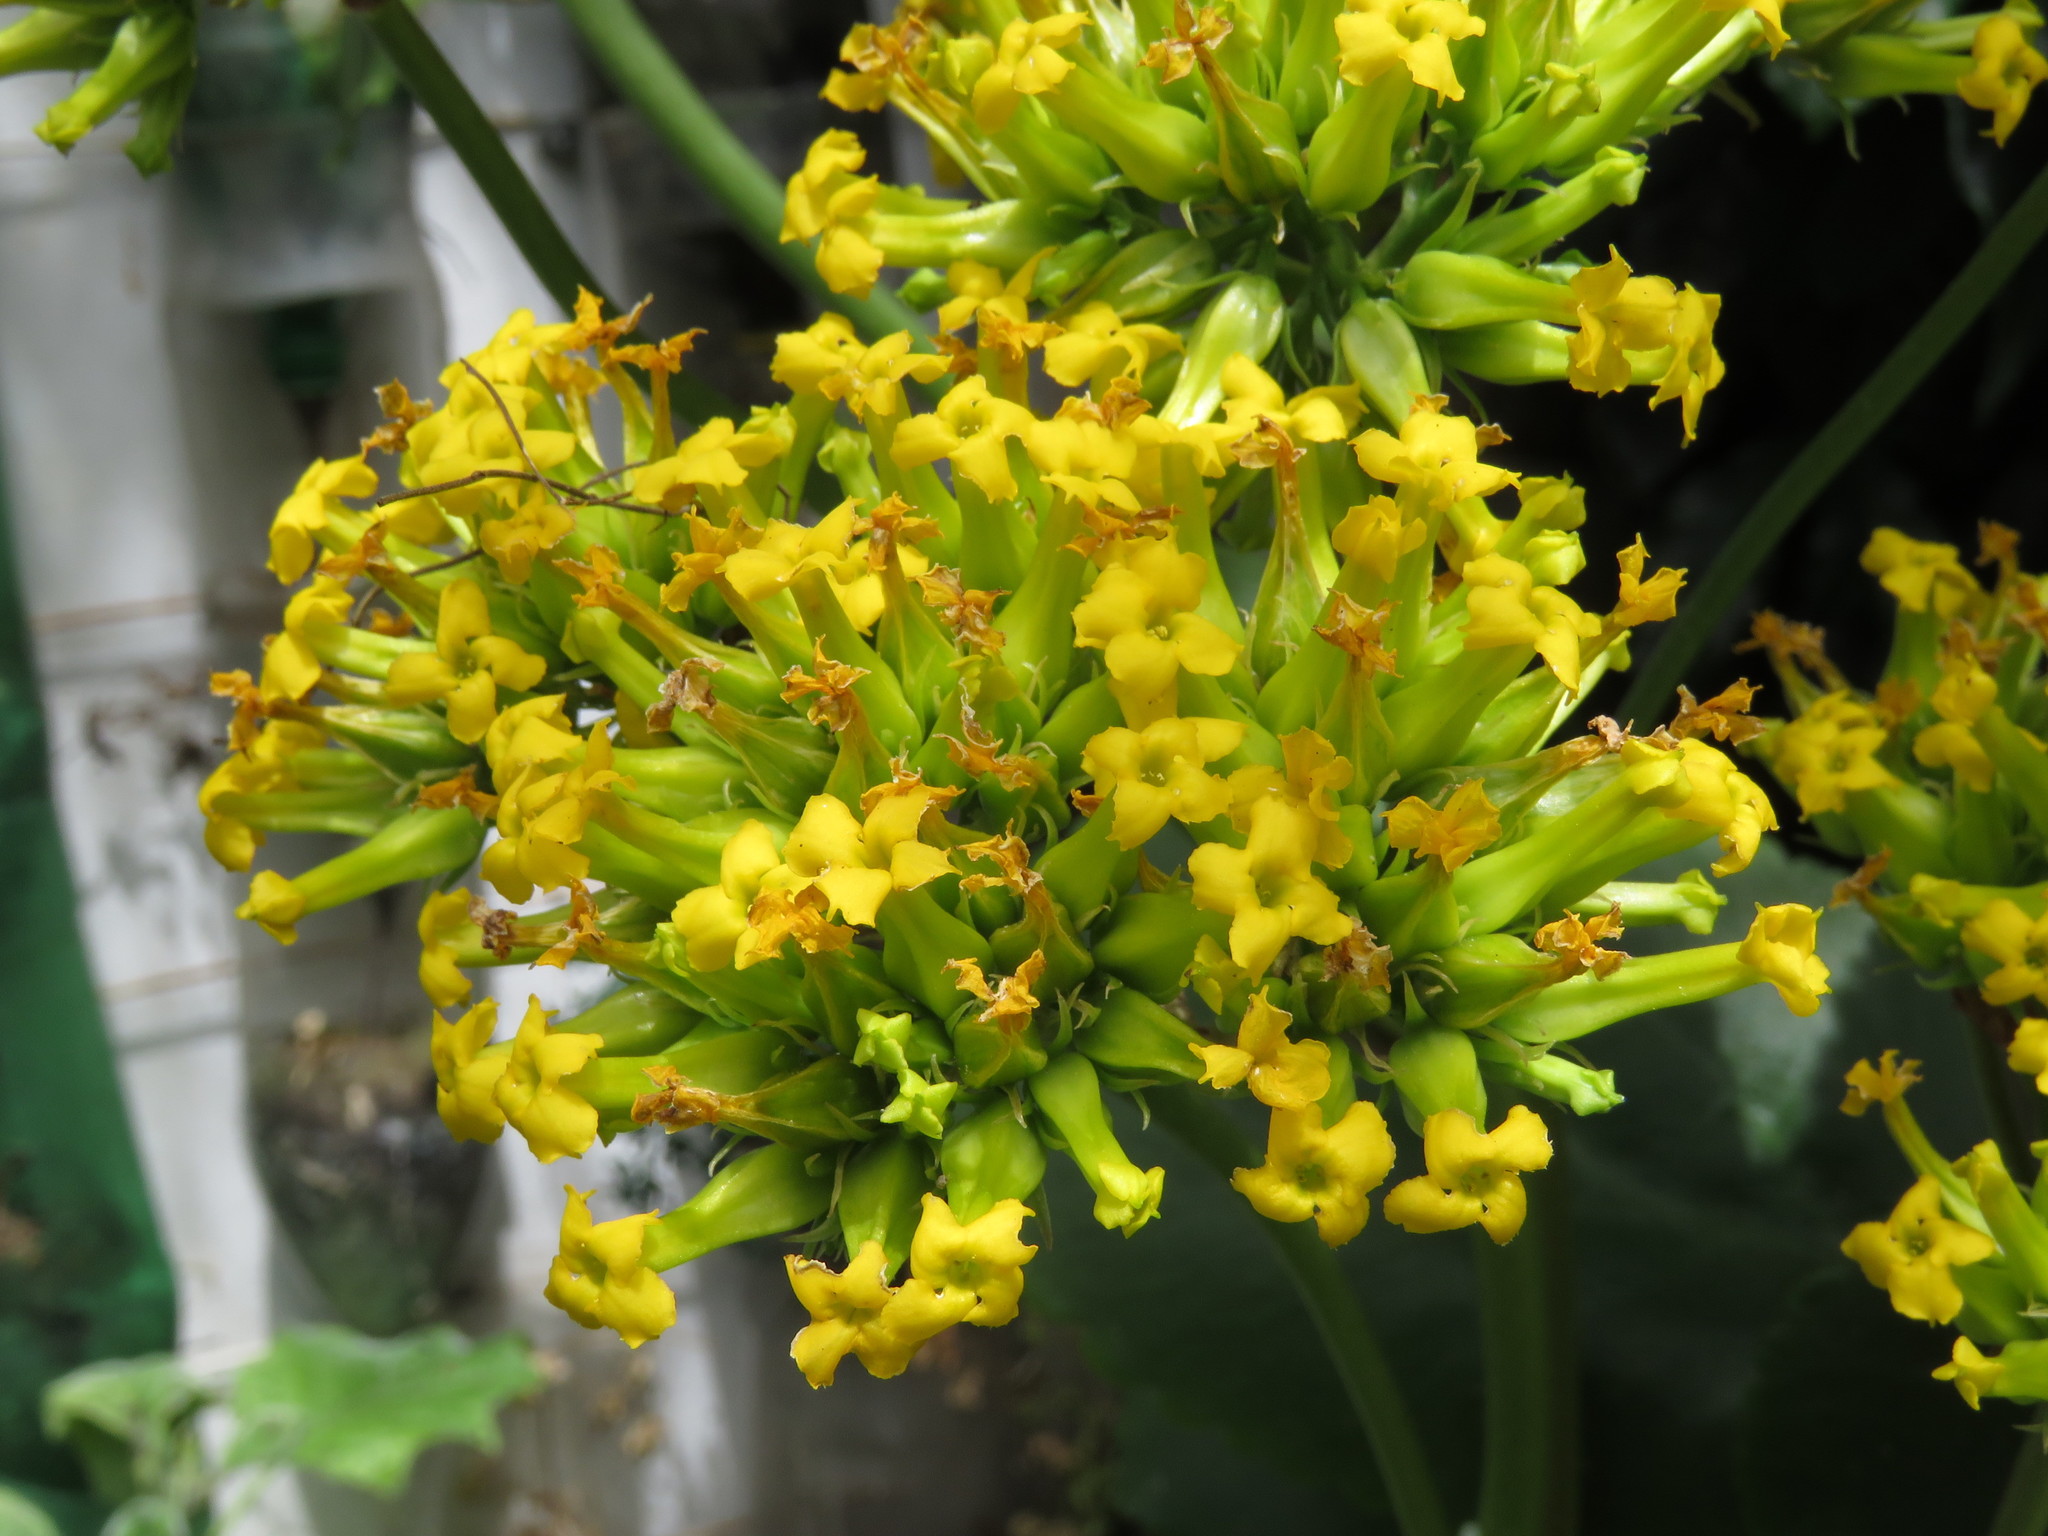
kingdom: Plantae
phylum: Tracheophyta
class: Magnoliopsida
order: Saxifragales
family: Crassulaceae
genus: Kalanchoe
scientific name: Kalanchoe densiflora
